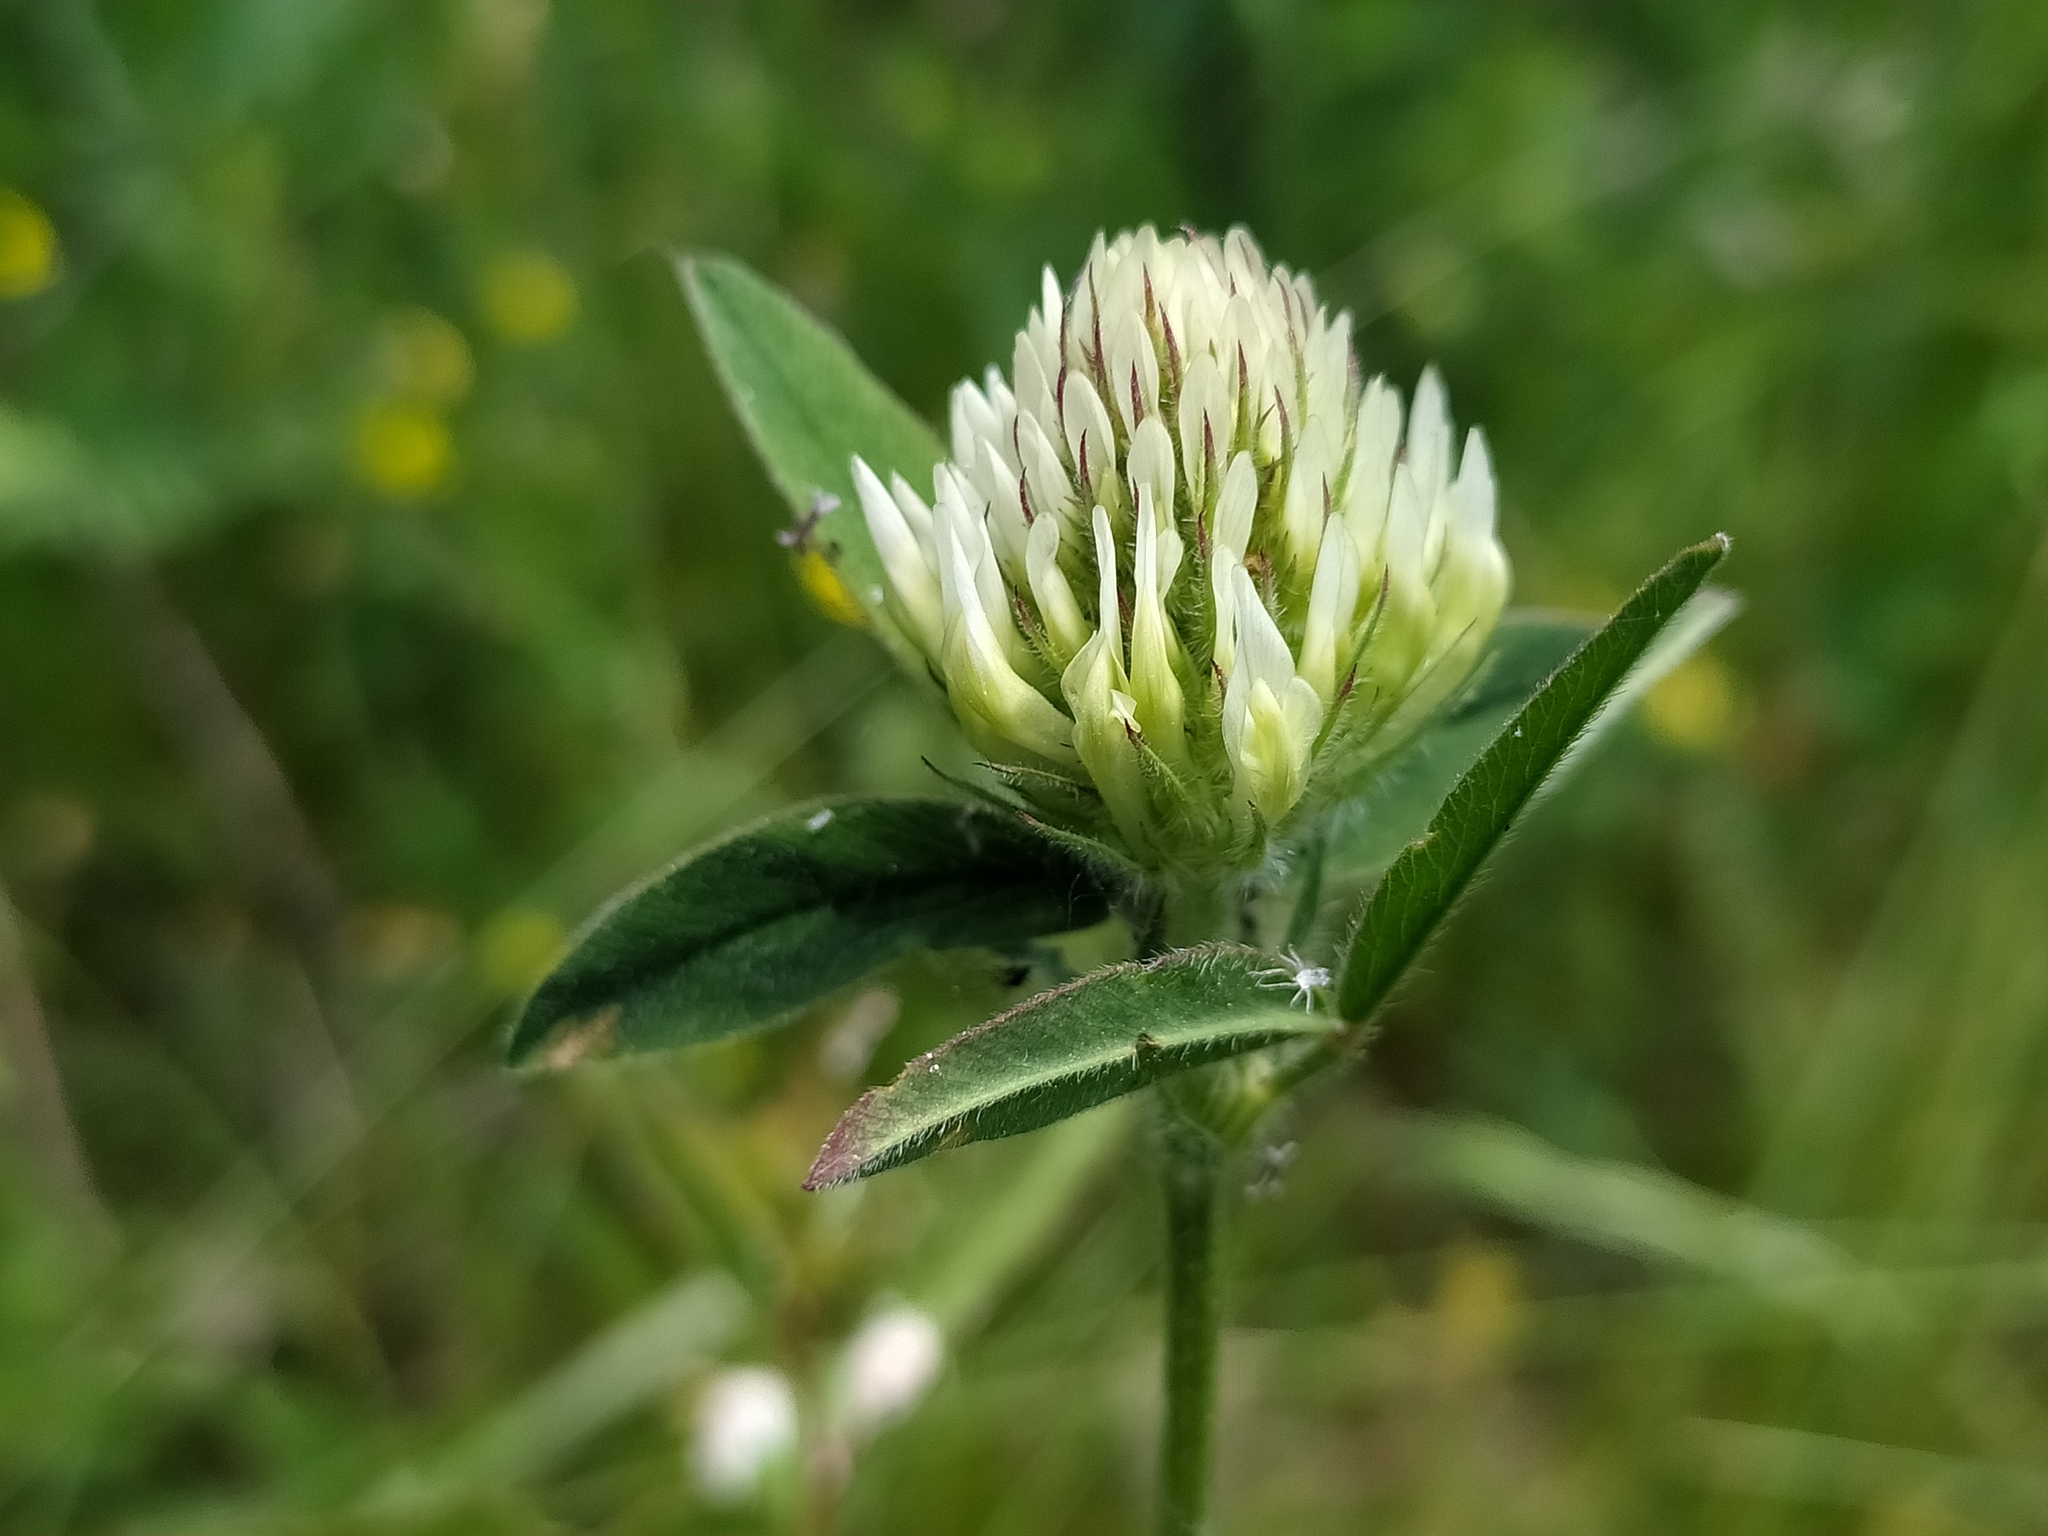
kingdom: Plantae
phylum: Tracheophyta
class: Magnoliopsida
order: Fabales
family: Fabaceae
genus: Trifolium
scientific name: Trifolium ochroleucon
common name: Sulphur clover
